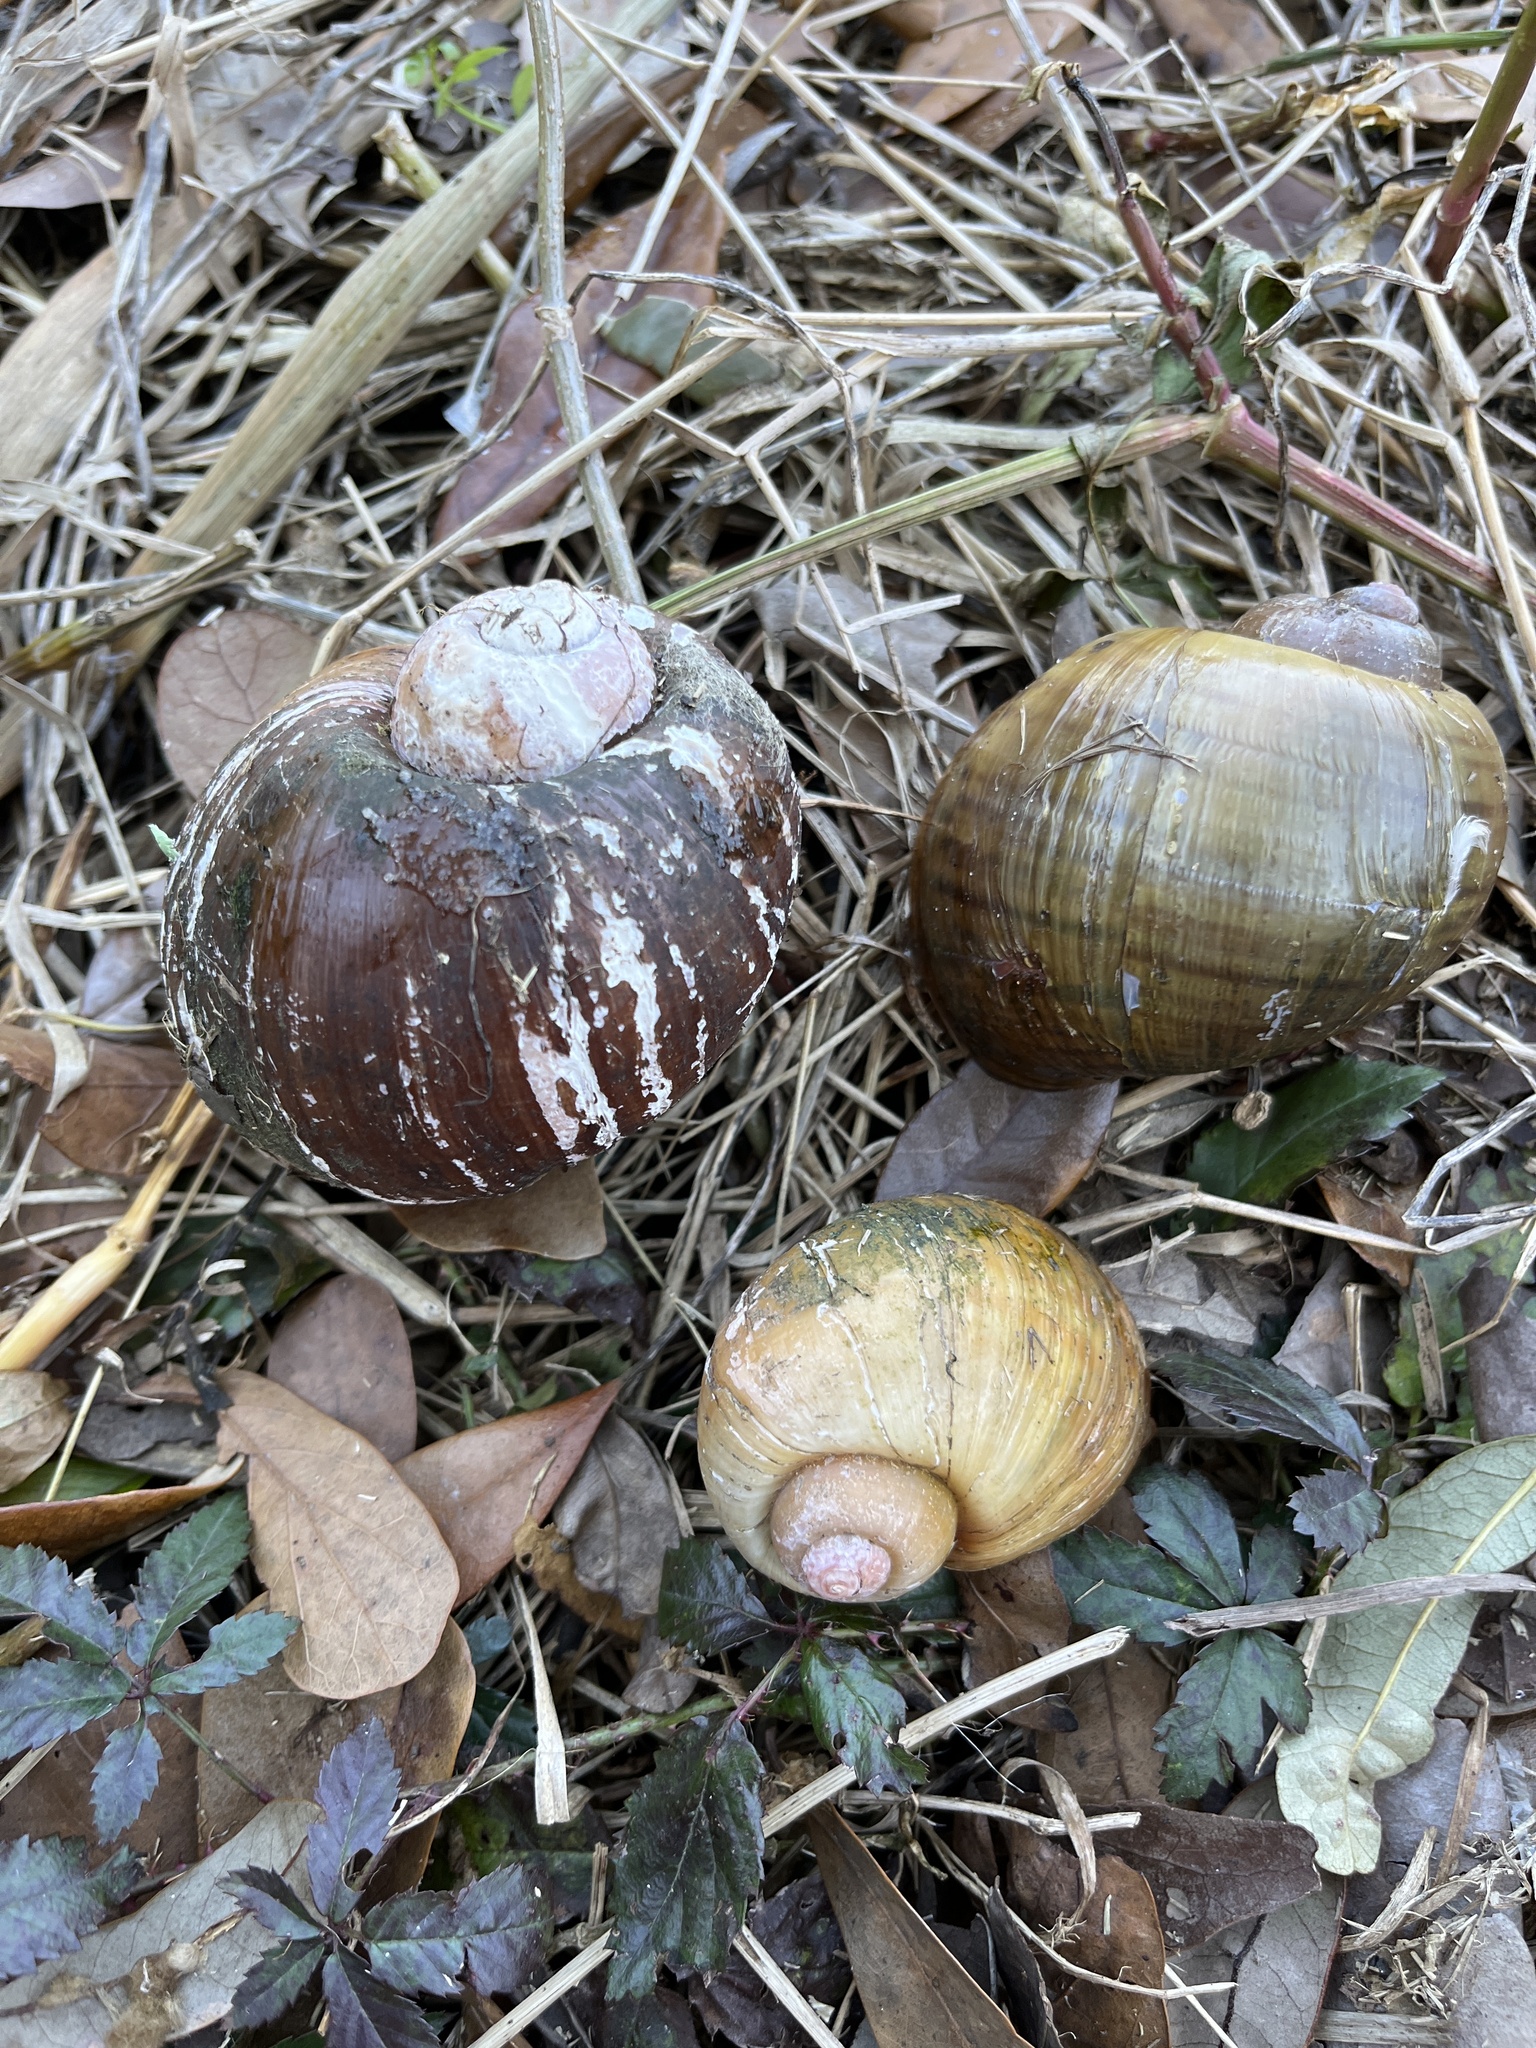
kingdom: Animalia
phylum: Mollusca
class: Gastropoda
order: Architaenioglossa
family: Ampullariidae
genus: Pomacea
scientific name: Pomacea maculata
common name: Giant applesnail
